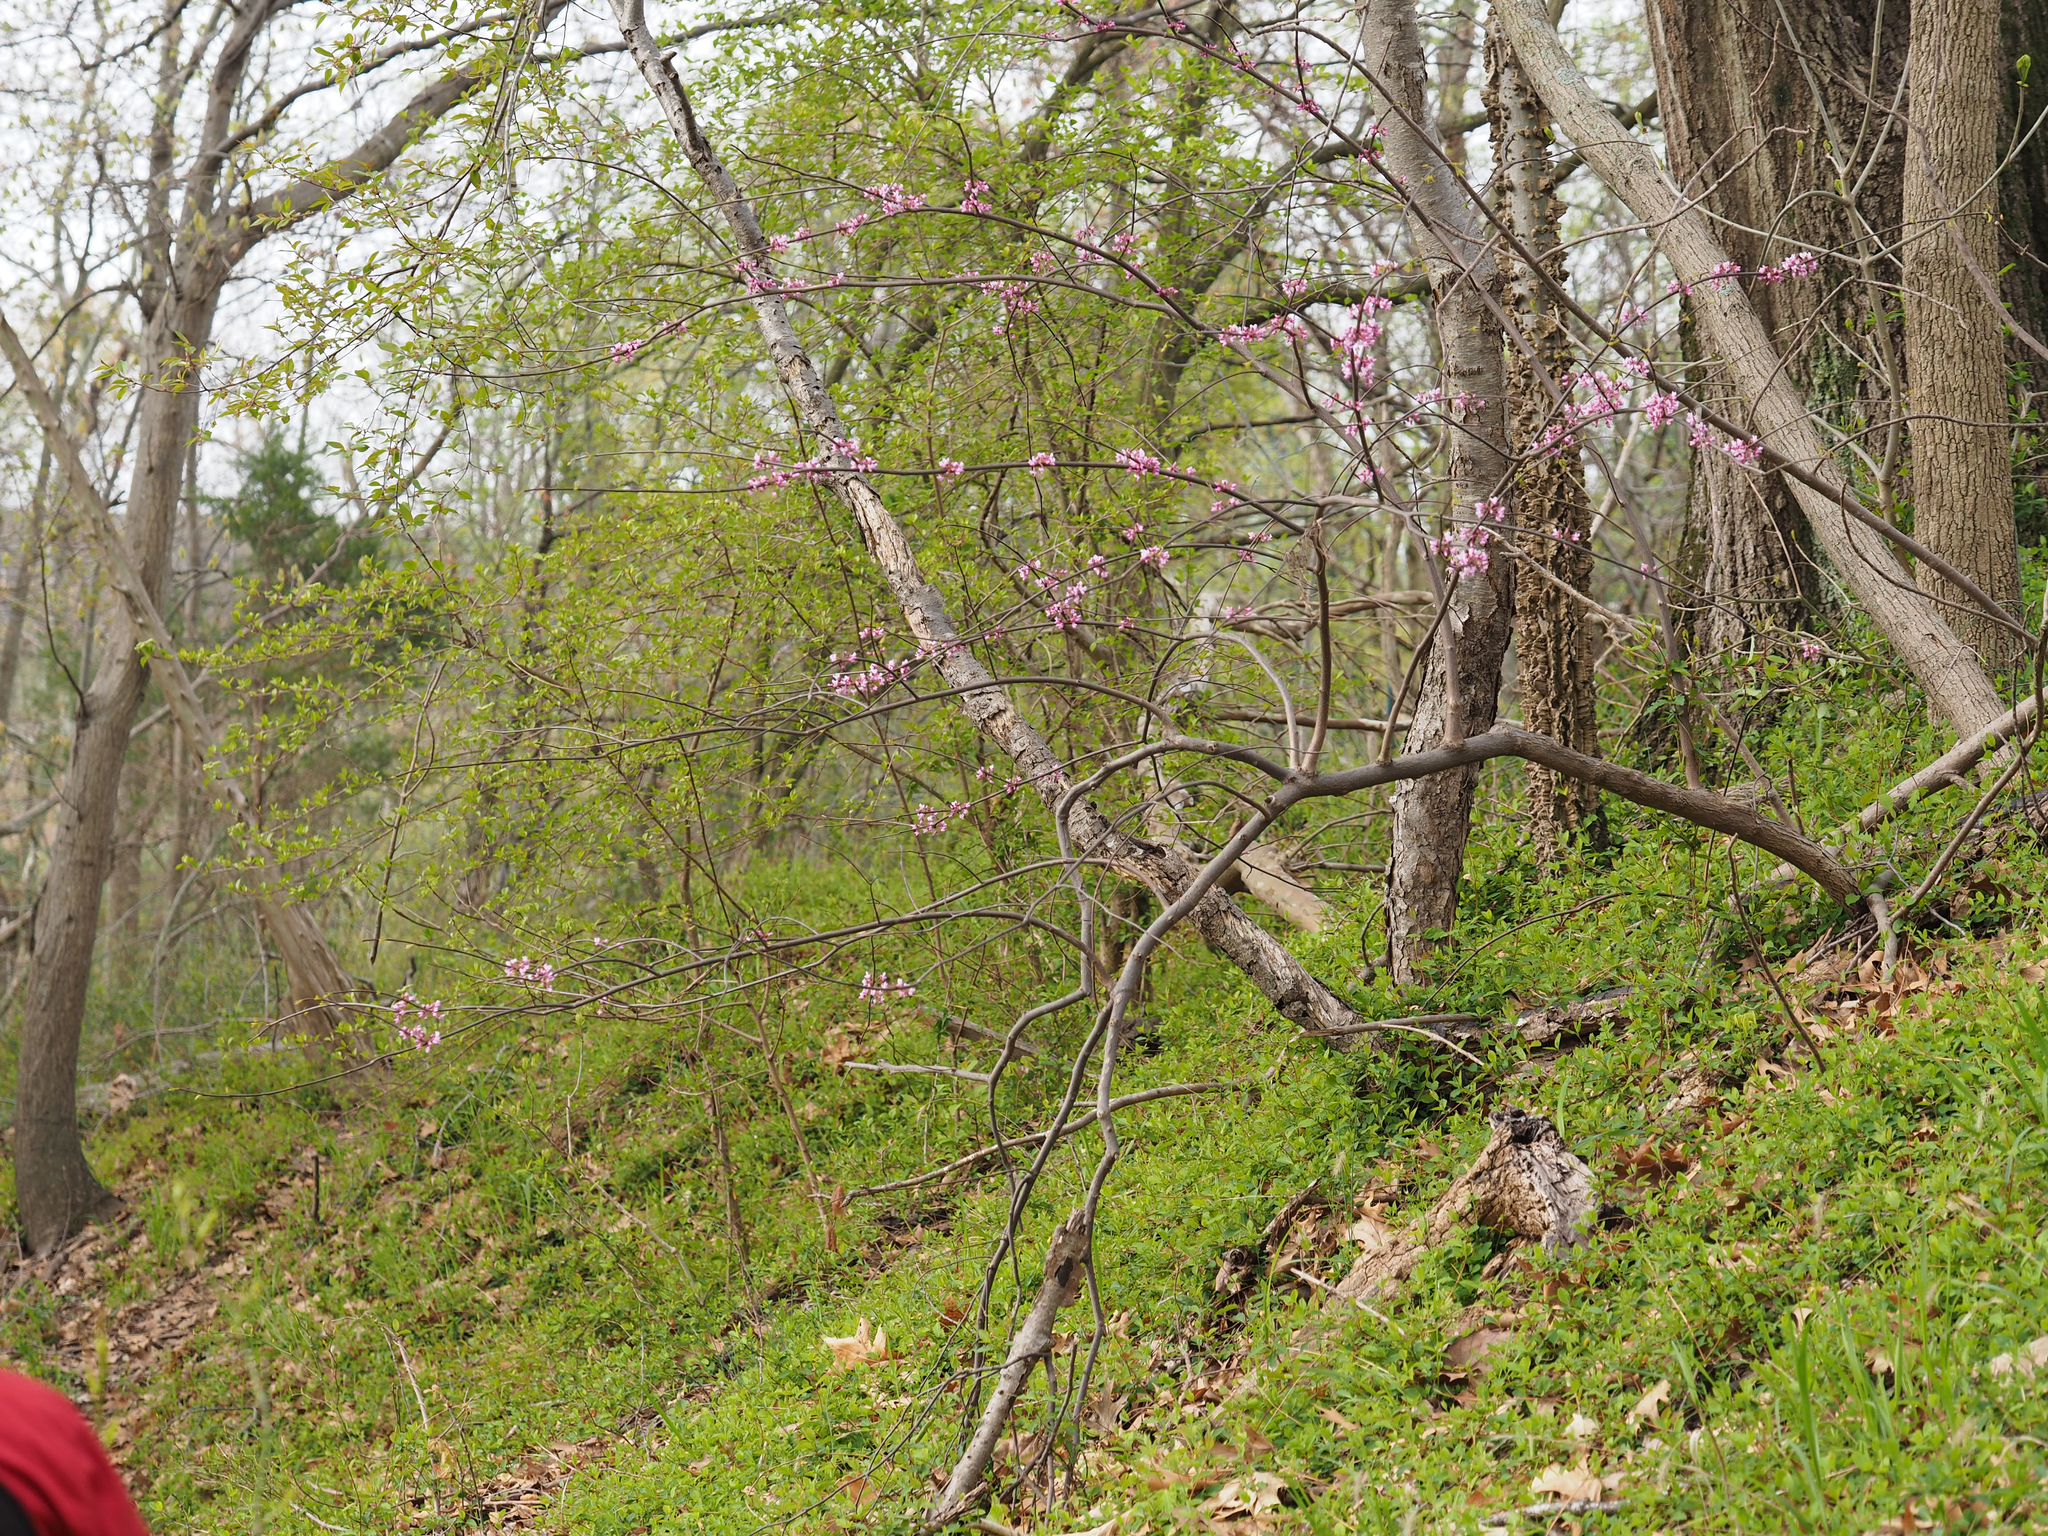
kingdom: Plantae
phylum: Tracheophyta
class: Magnoliopsida
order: Fabales
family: Fabaceae
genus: Cercis
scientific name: Cercis canadensis
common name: Eastern redbud
